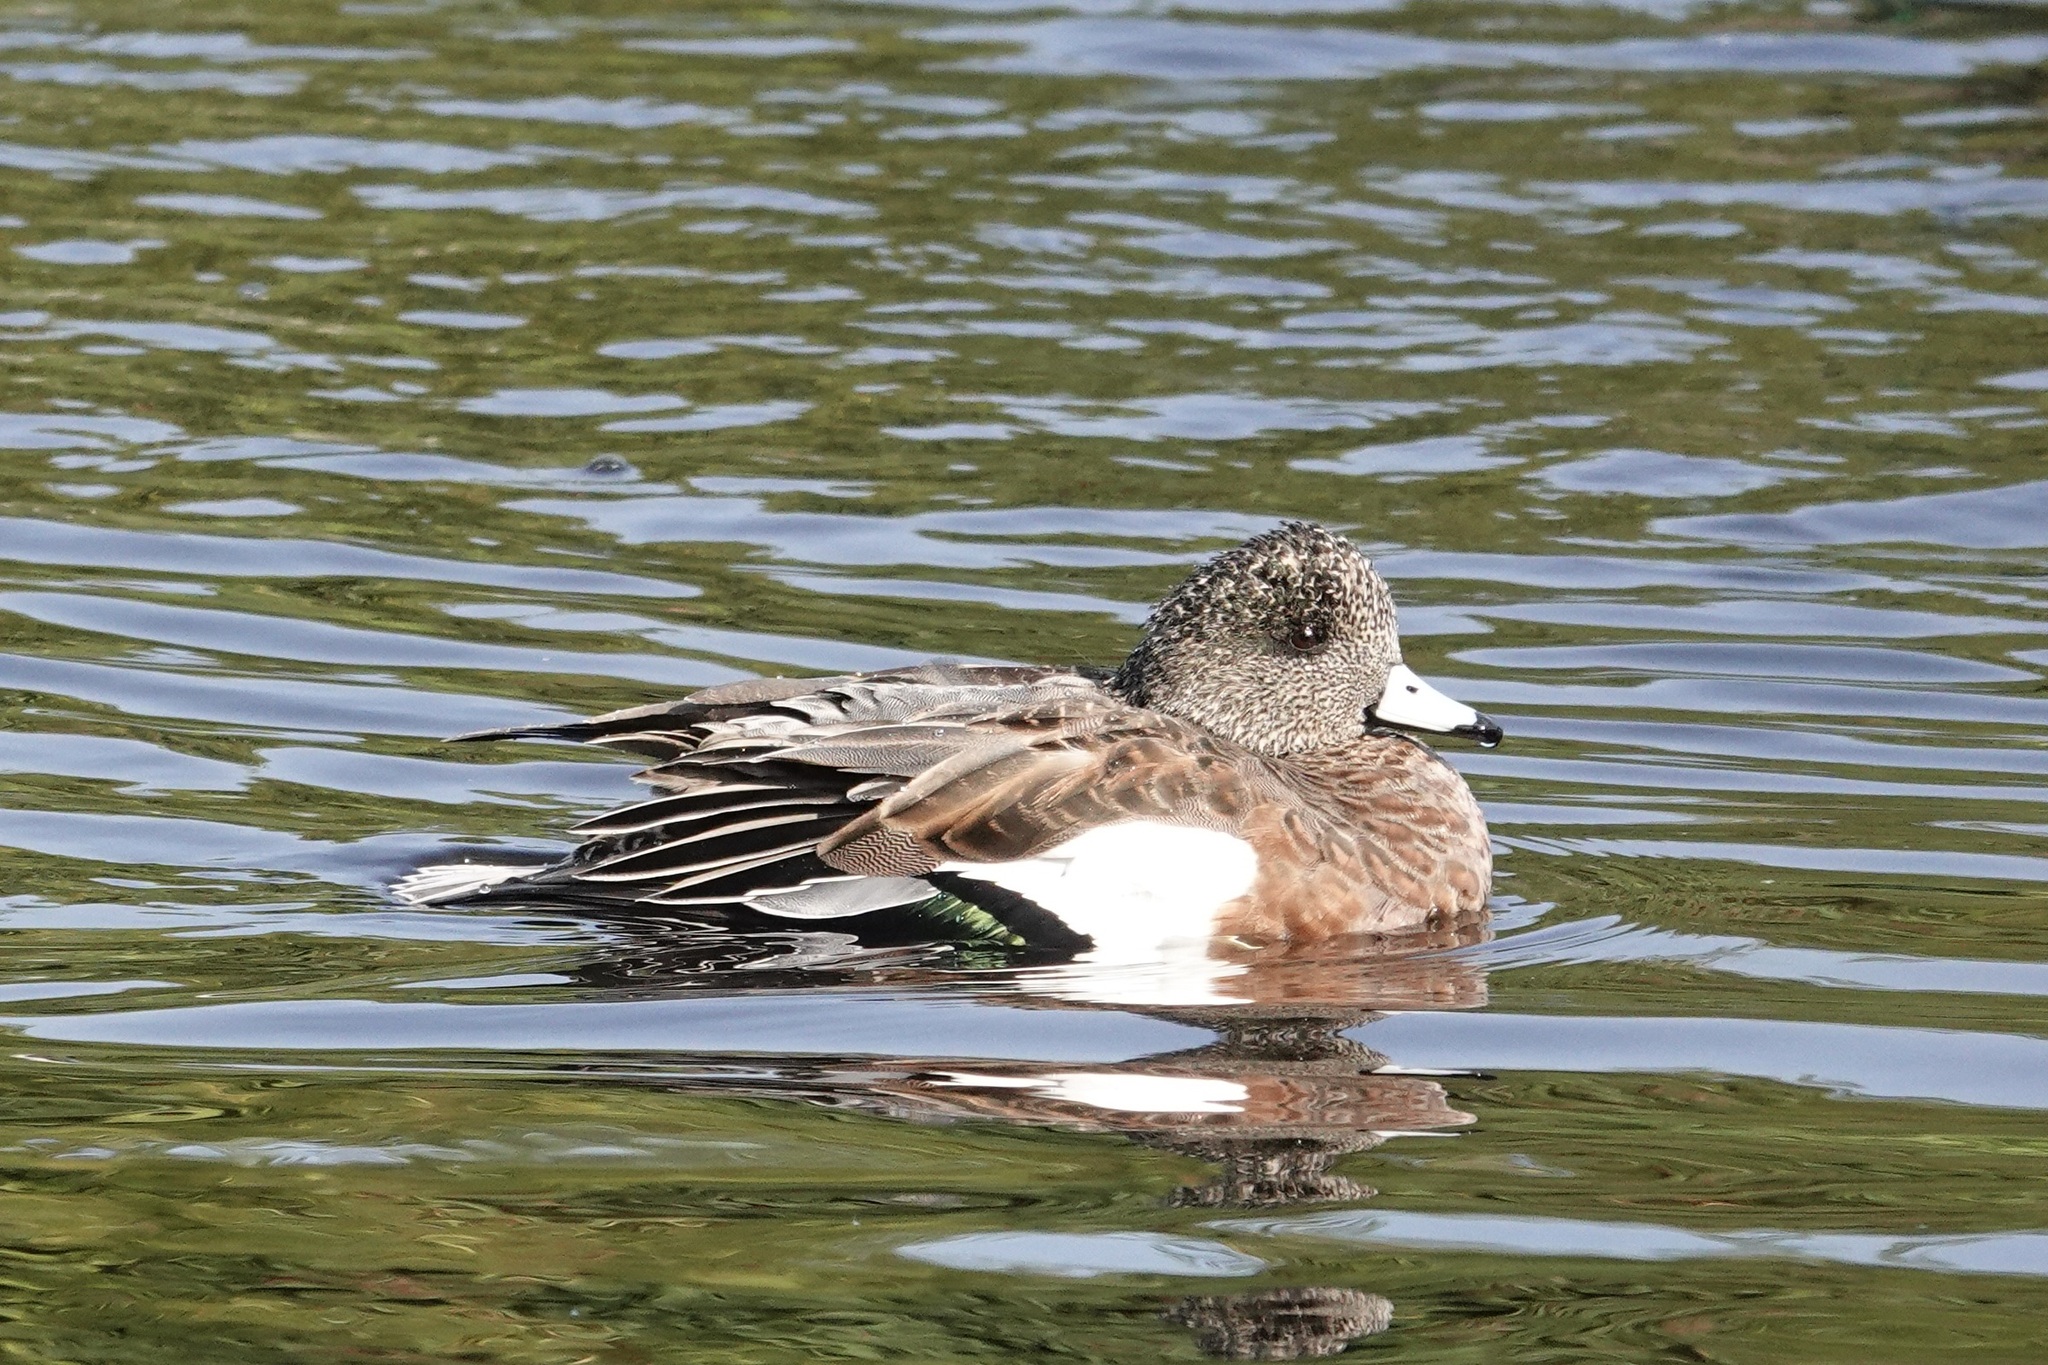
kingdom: Animalia
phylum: Chordata
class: Aves
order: Anseriformes
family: Anatidae
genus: Mareca
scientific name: Mareca americana
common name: American wigeon
